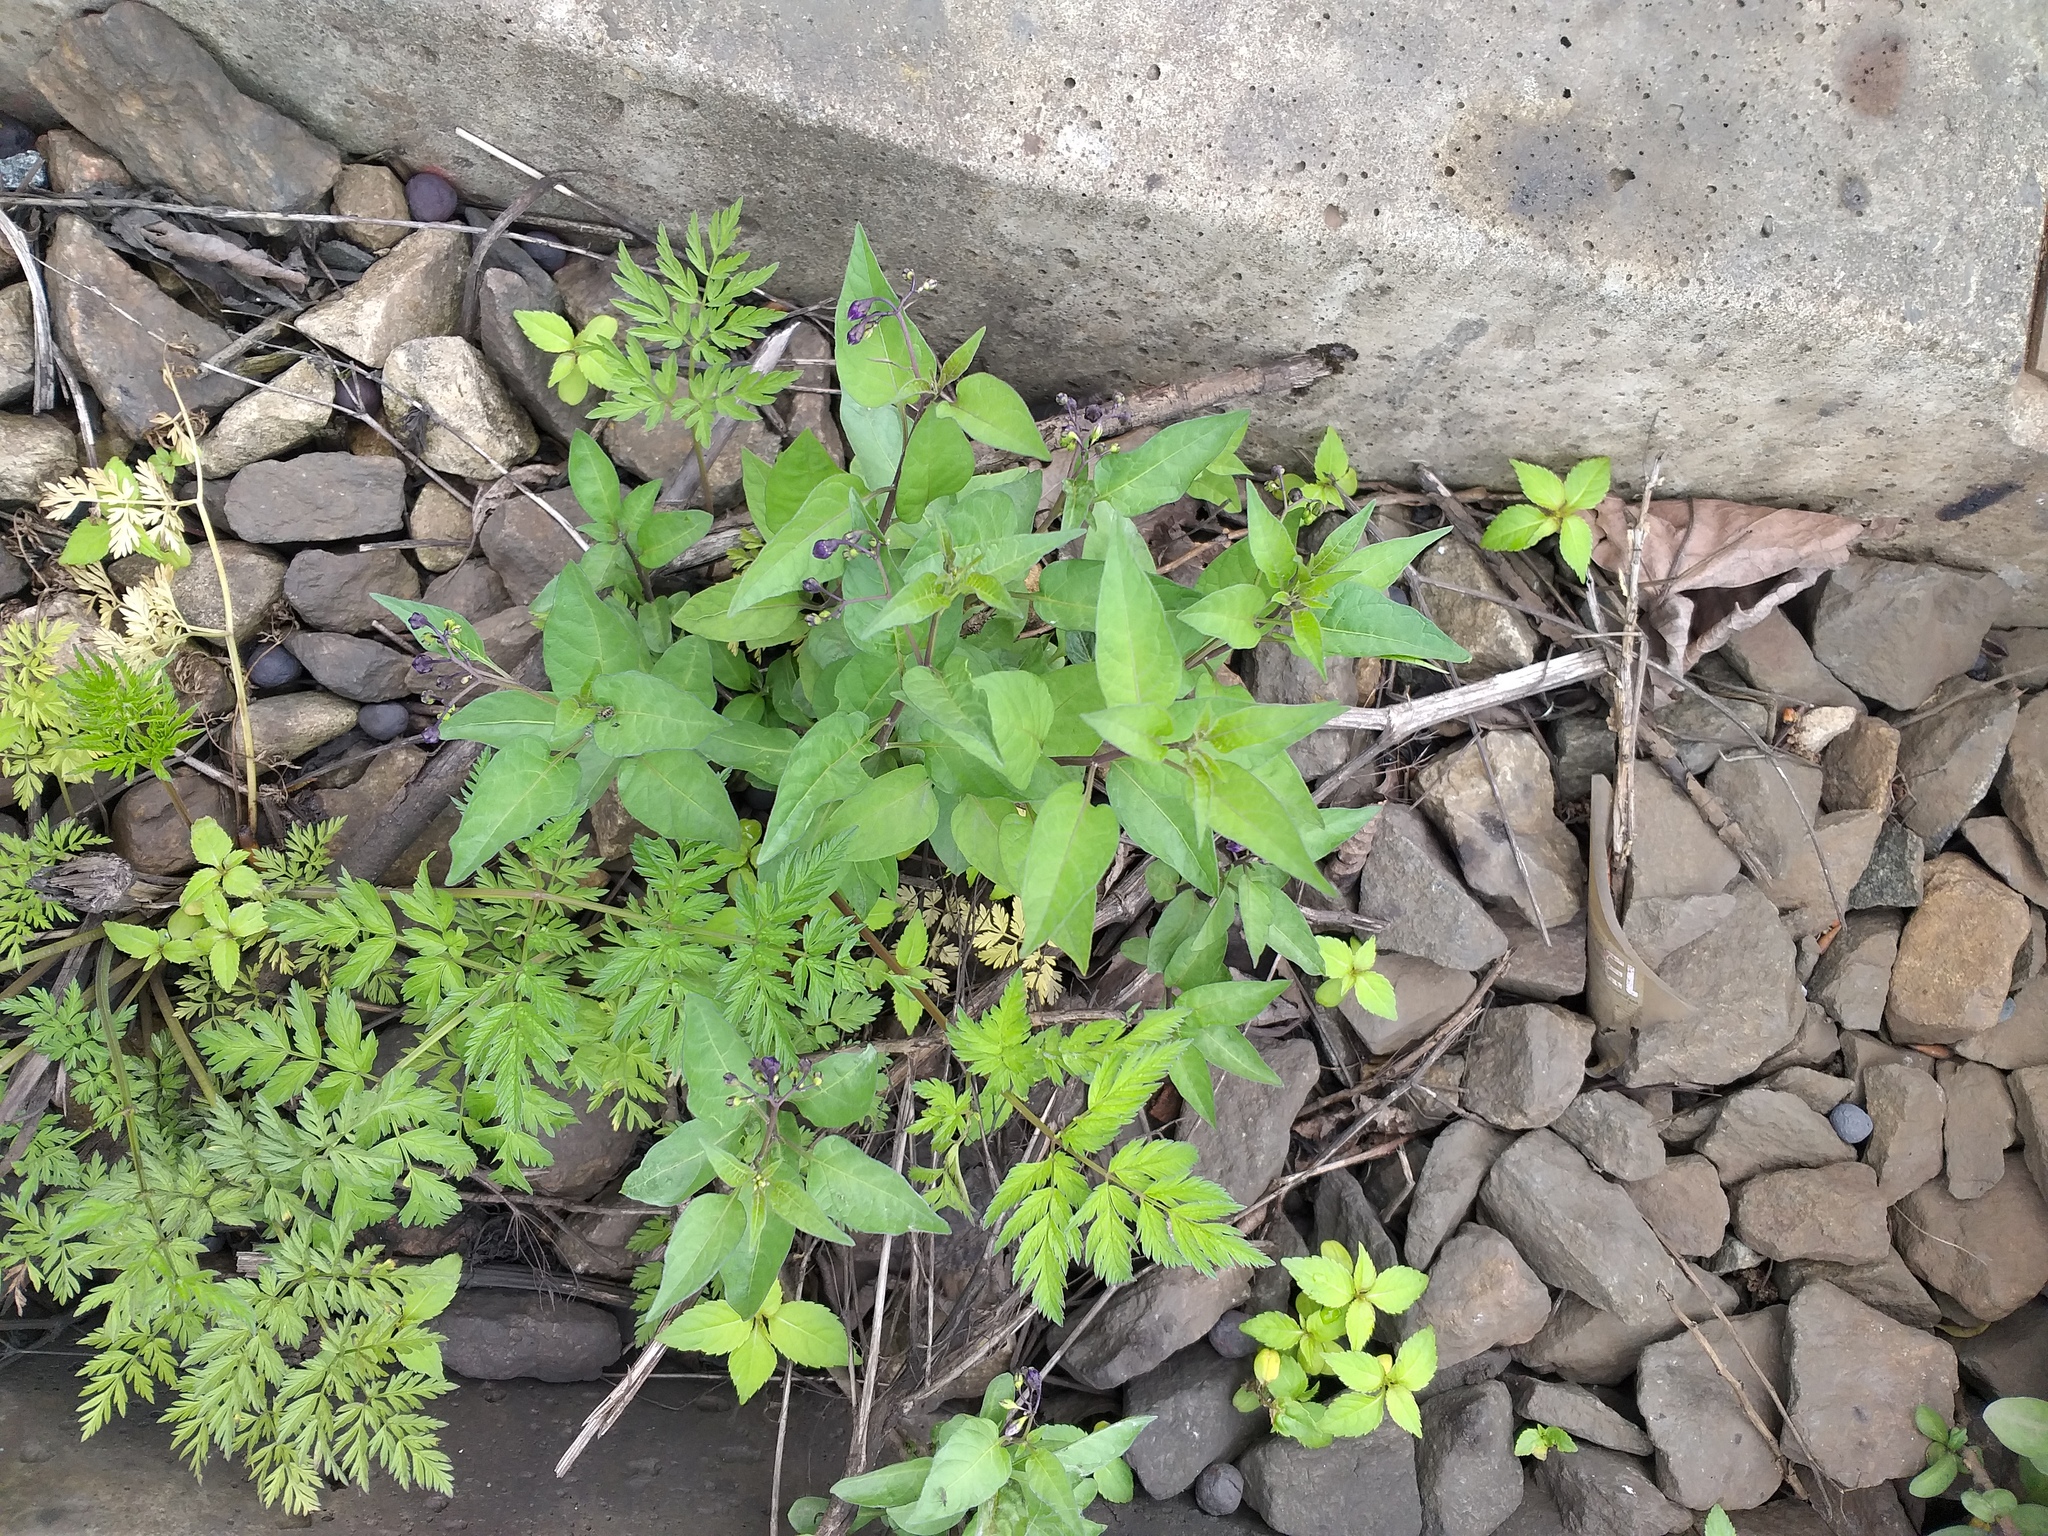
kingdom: Plantae
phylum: Tracheophyta
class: Magnoliopsida
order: Solanales
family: Solanaceae
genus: Solanum
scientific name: Solanum dulcamara
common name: Climbing nightshade
